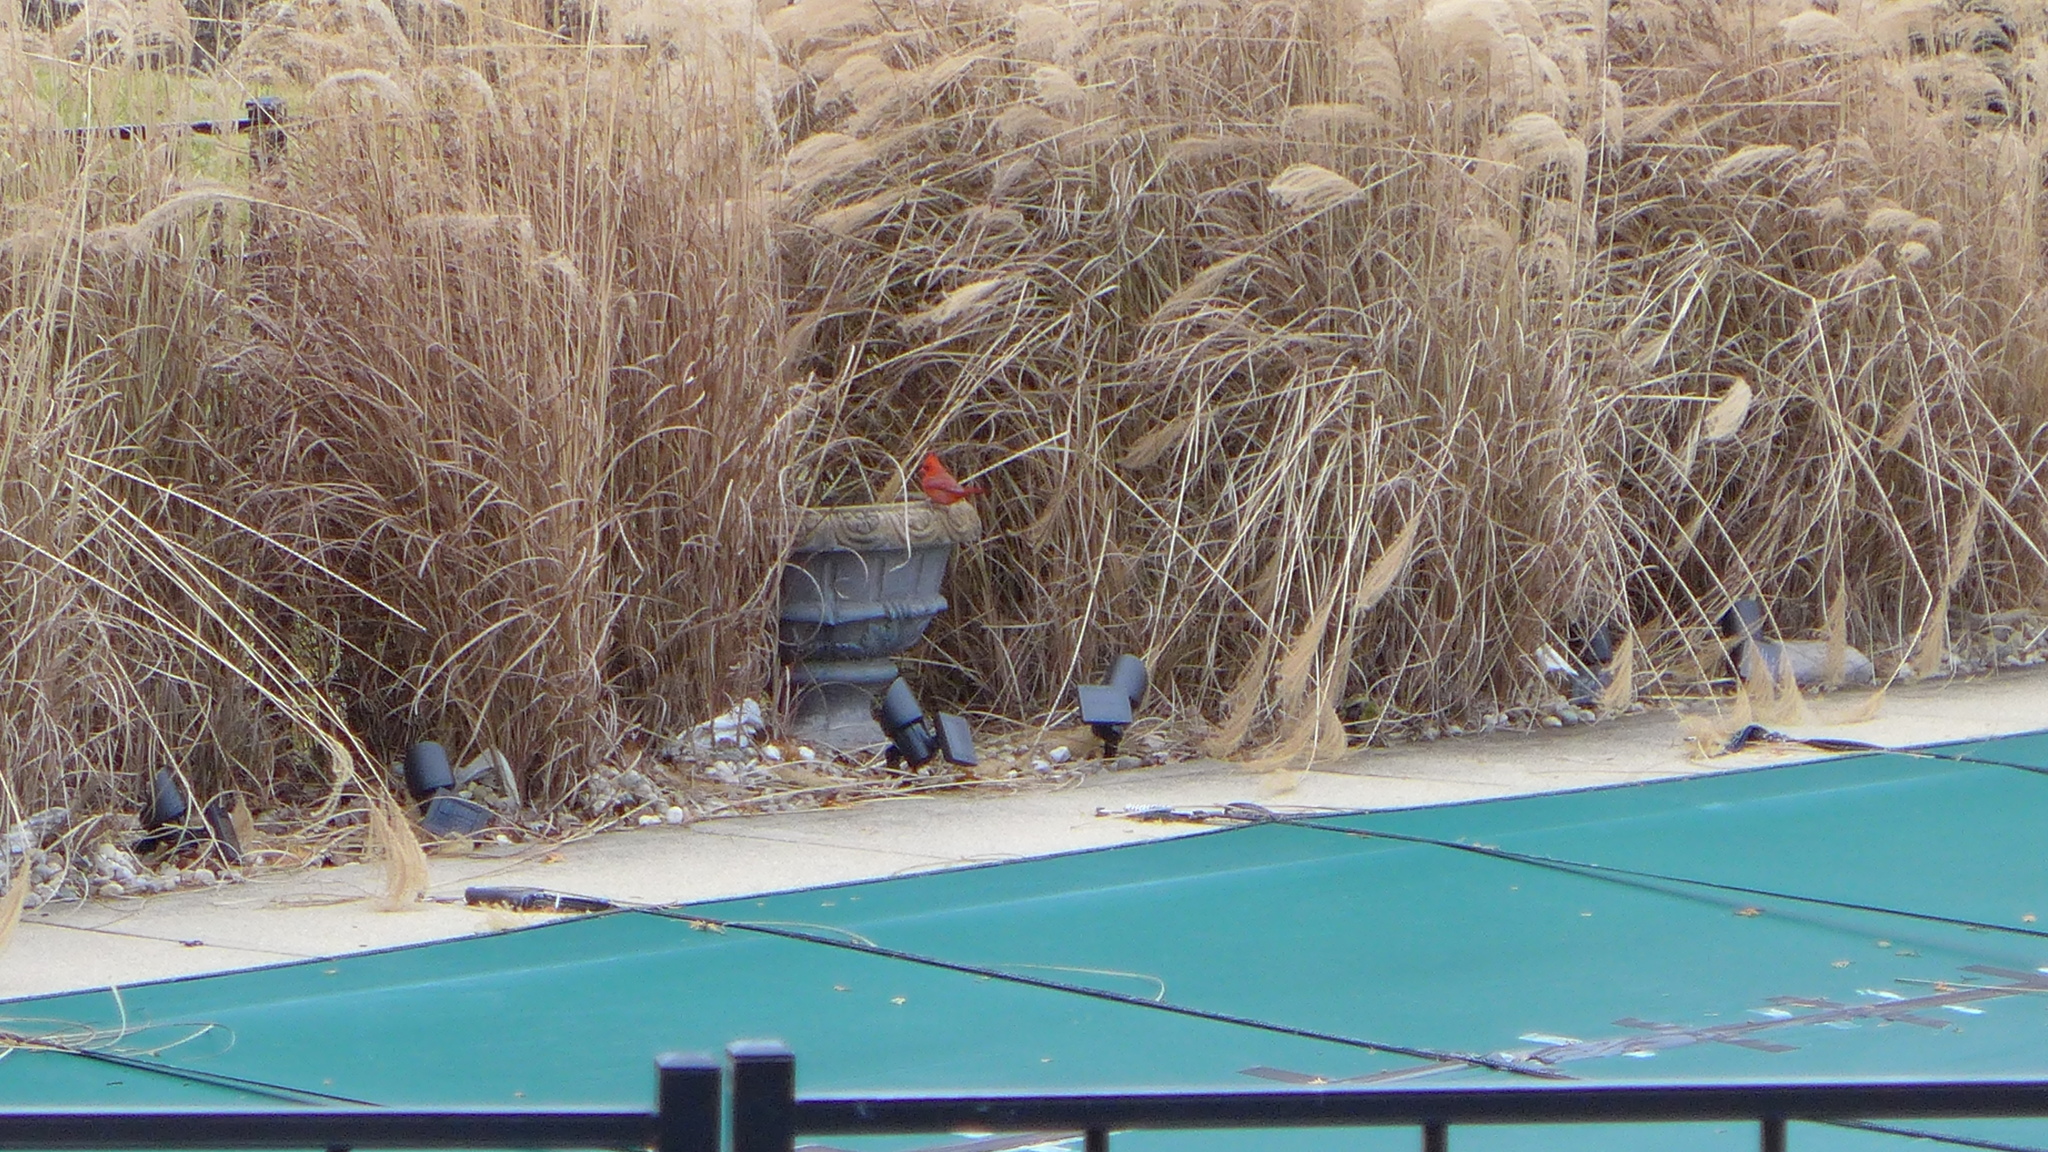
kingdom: Animalia
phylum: Chordata
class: Aves
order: Passeriformes
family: Cardinalidae
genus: Cardinalis
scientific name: Cardinalis cardinalis
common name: Northern cardinal
